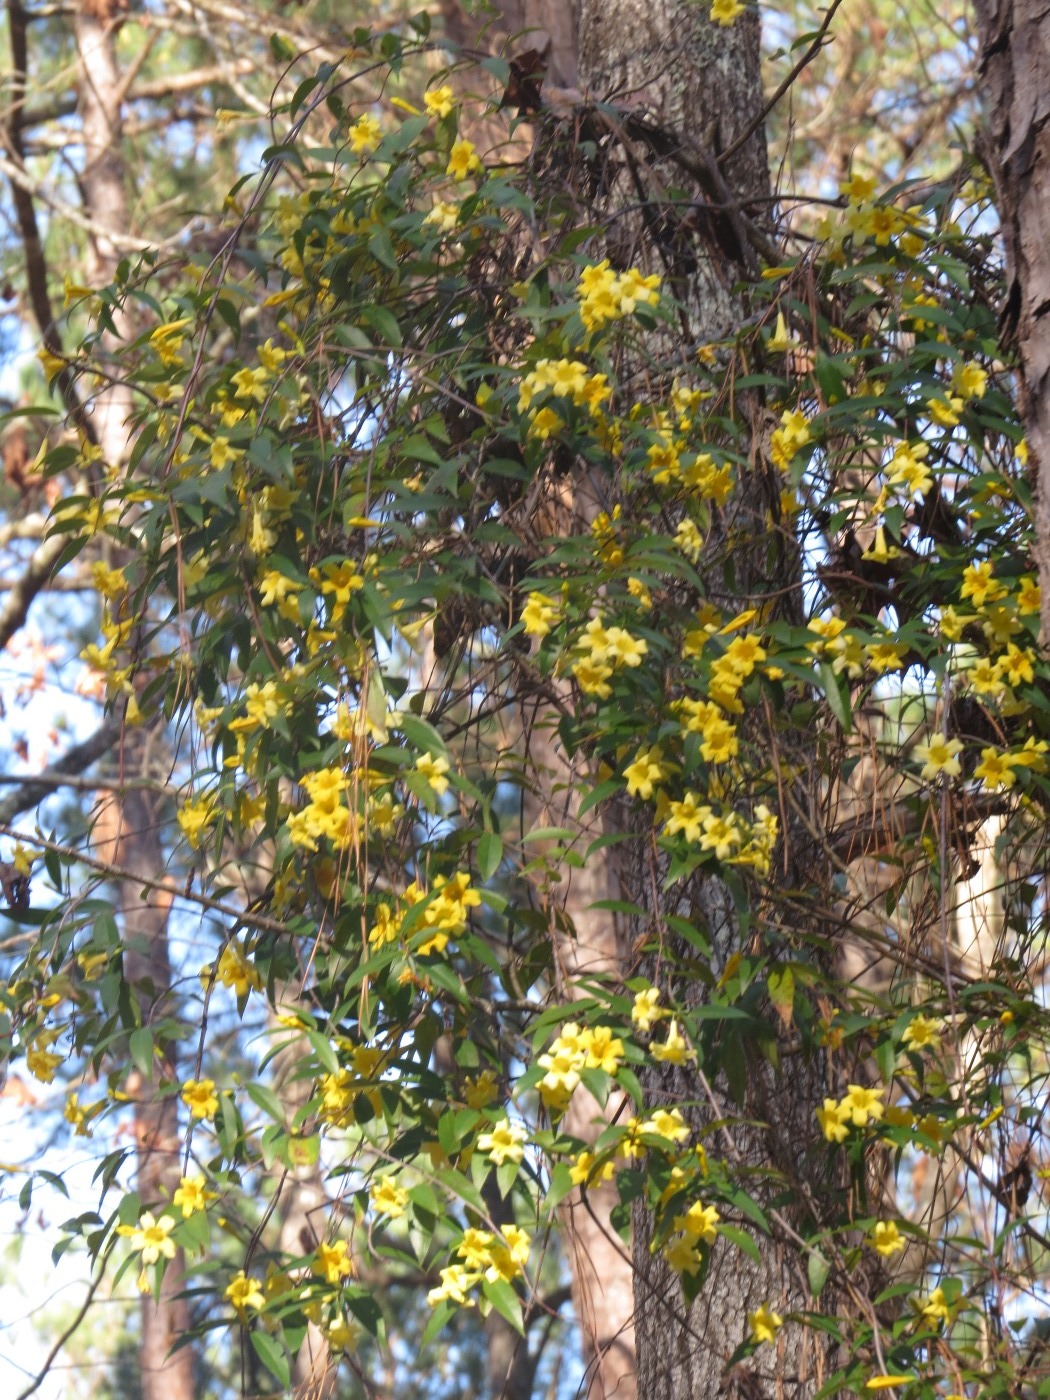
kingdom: Plantae
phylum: Tracheophyta
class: Magnoliopsida
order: Gentianales
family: Gelsemiaceae
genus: Gelsemium
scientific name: Gelsemium sempervirens
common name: Carolina-jasmine
